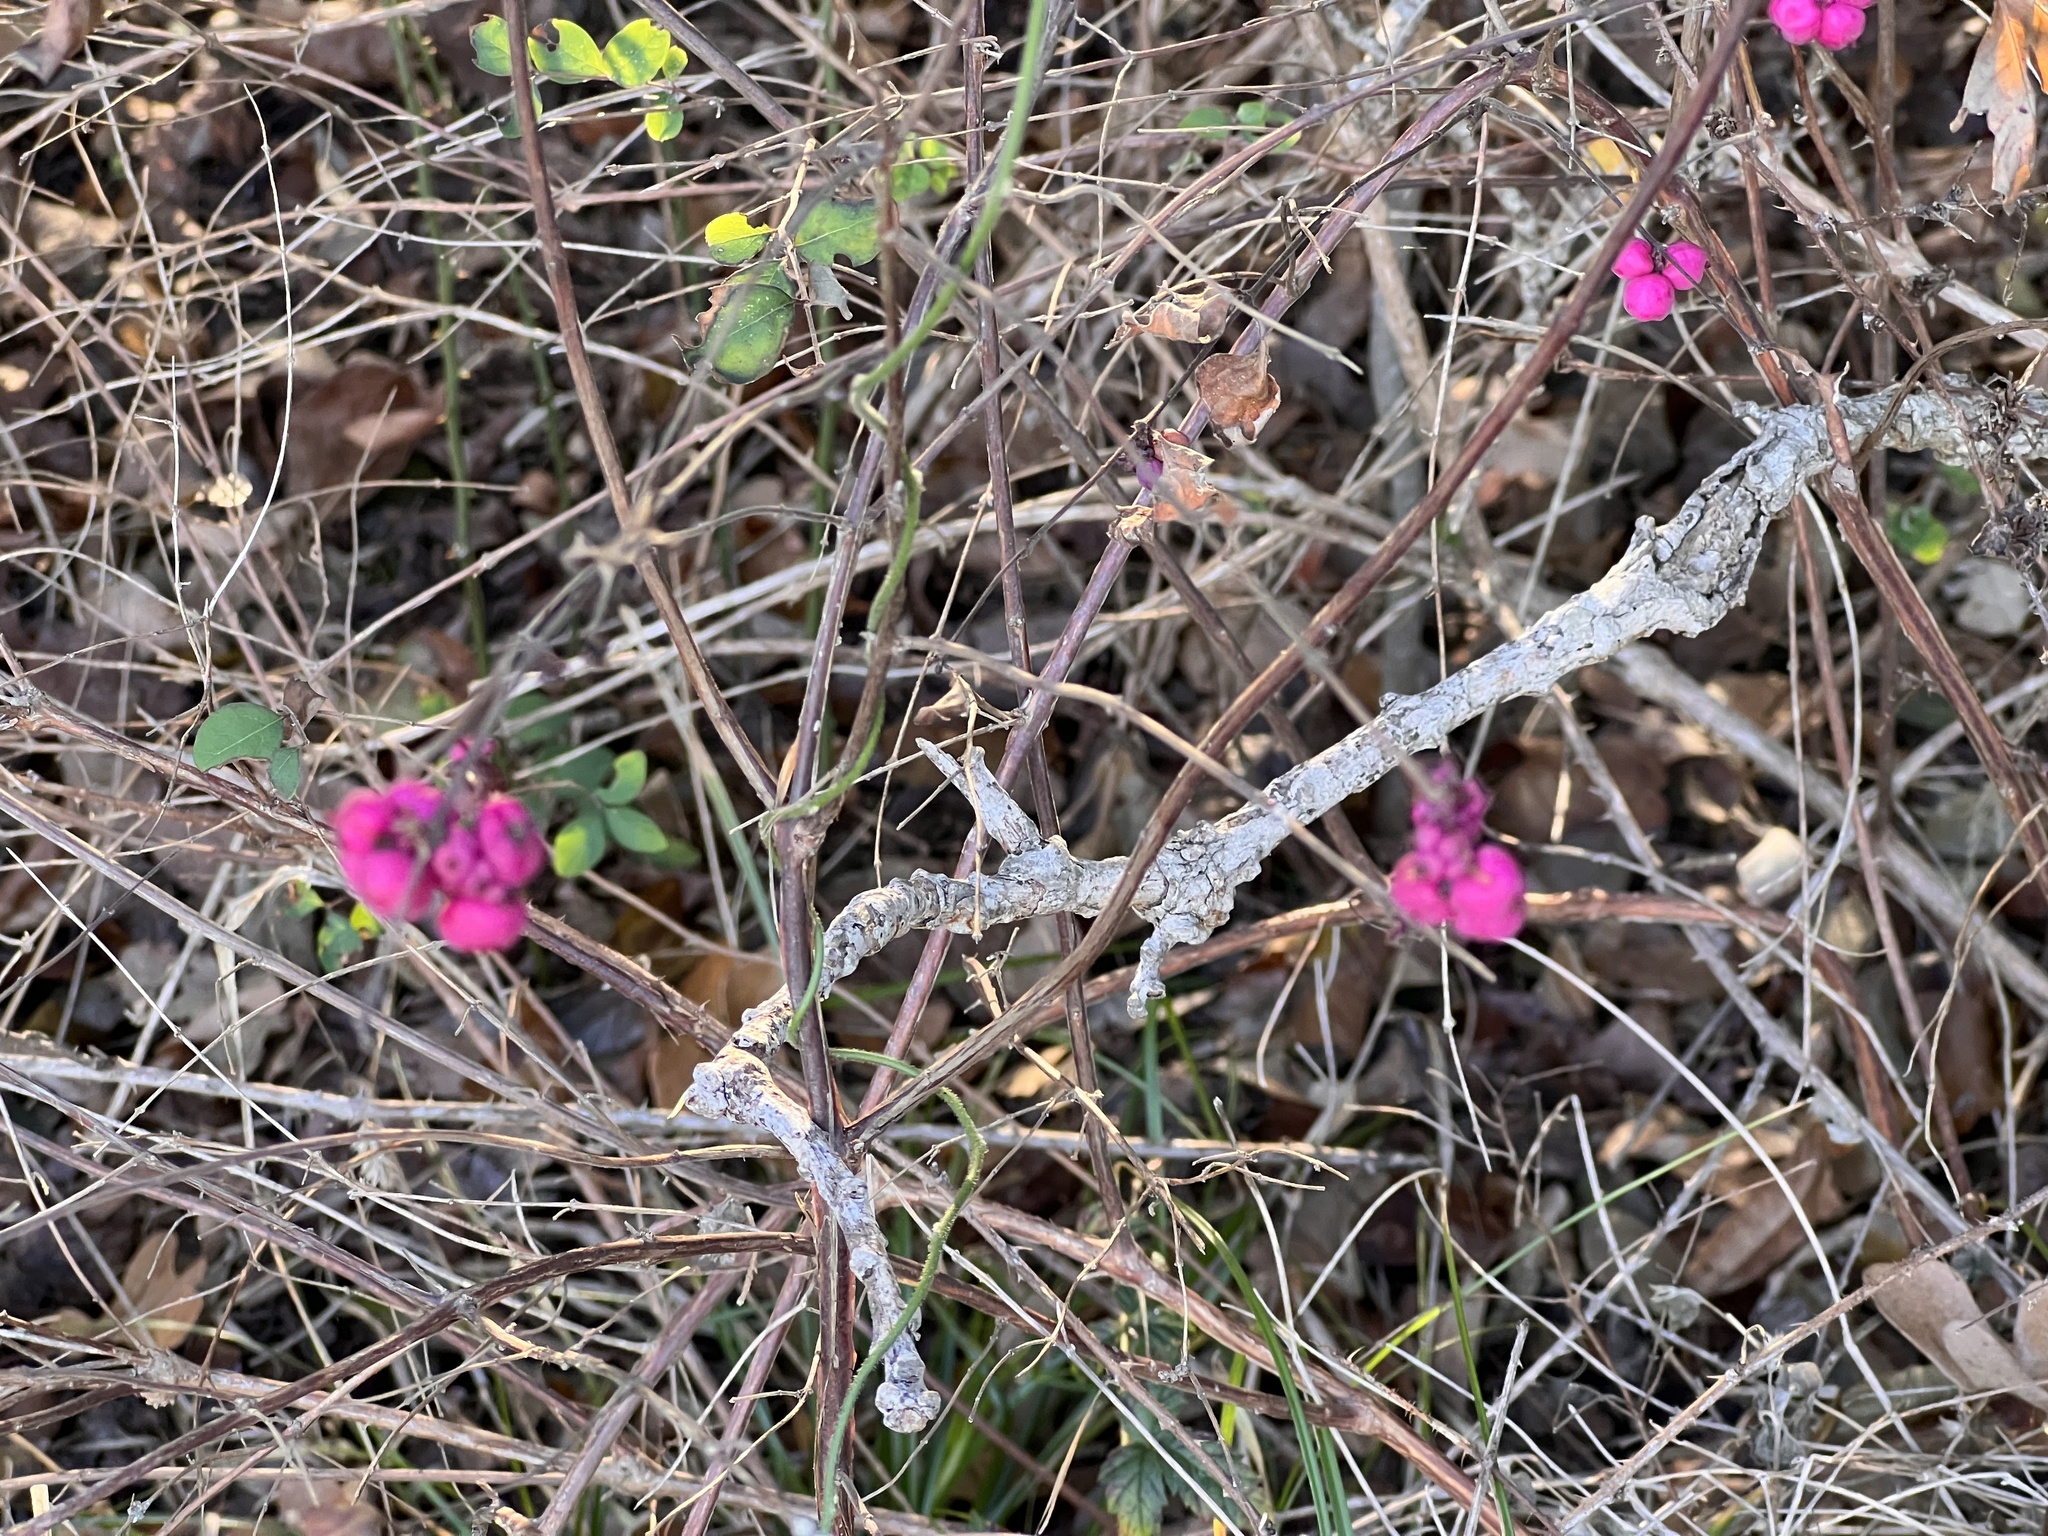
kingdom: Plantae
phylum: Tracheophyta
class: Magnoliopsida
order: Dipsacales
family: Caprifoliaceae
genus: Symphoricarpos
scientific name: Symphoricarpos orbiculatus
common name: Coralberry
